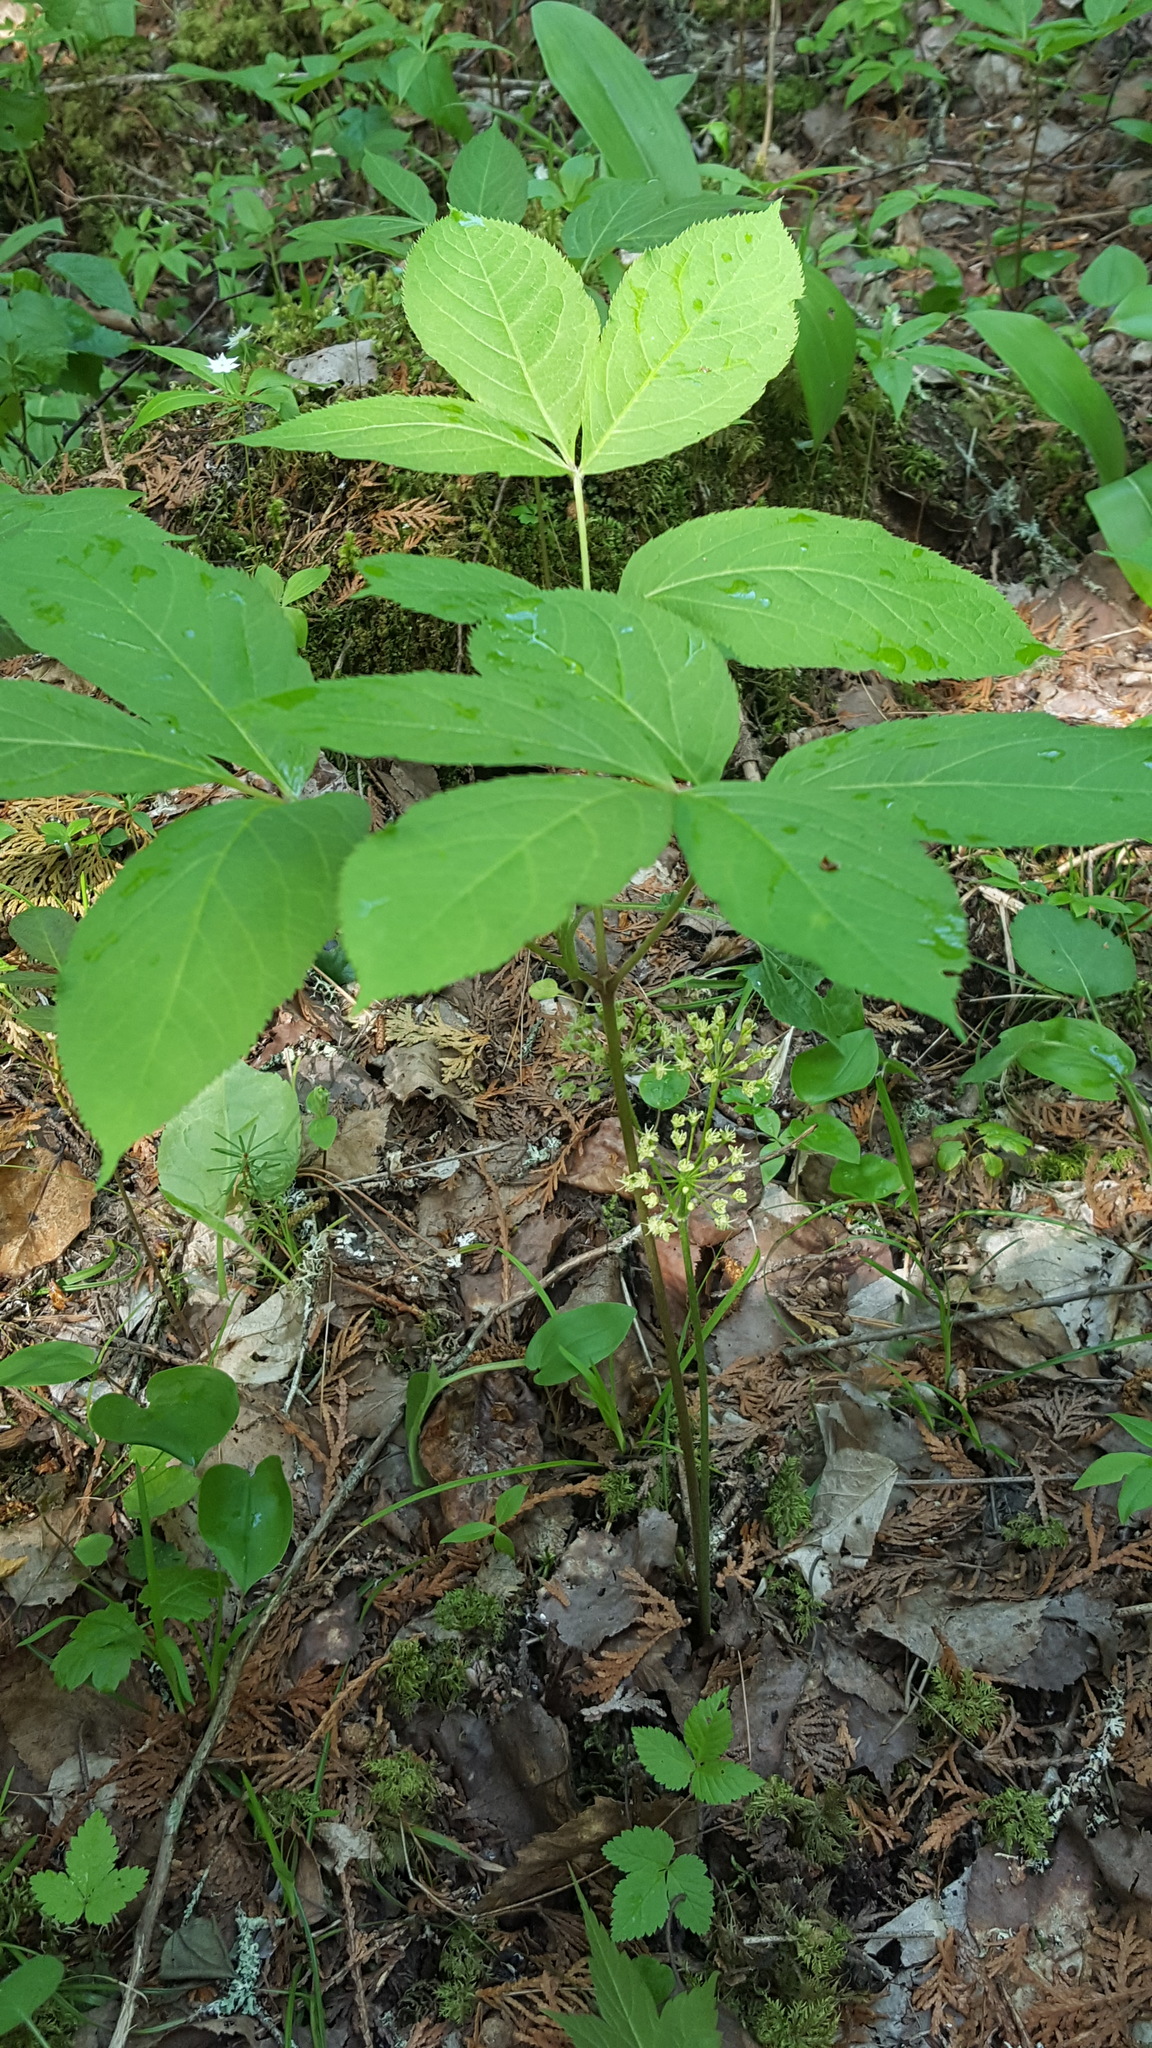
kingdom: Plantae
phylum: Tracheophyta
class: Magnoliopsida
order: Apiales
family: Araliaceae
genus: Aralia
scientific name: Aralia nudicaulis
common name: Wild sarsaparilla
